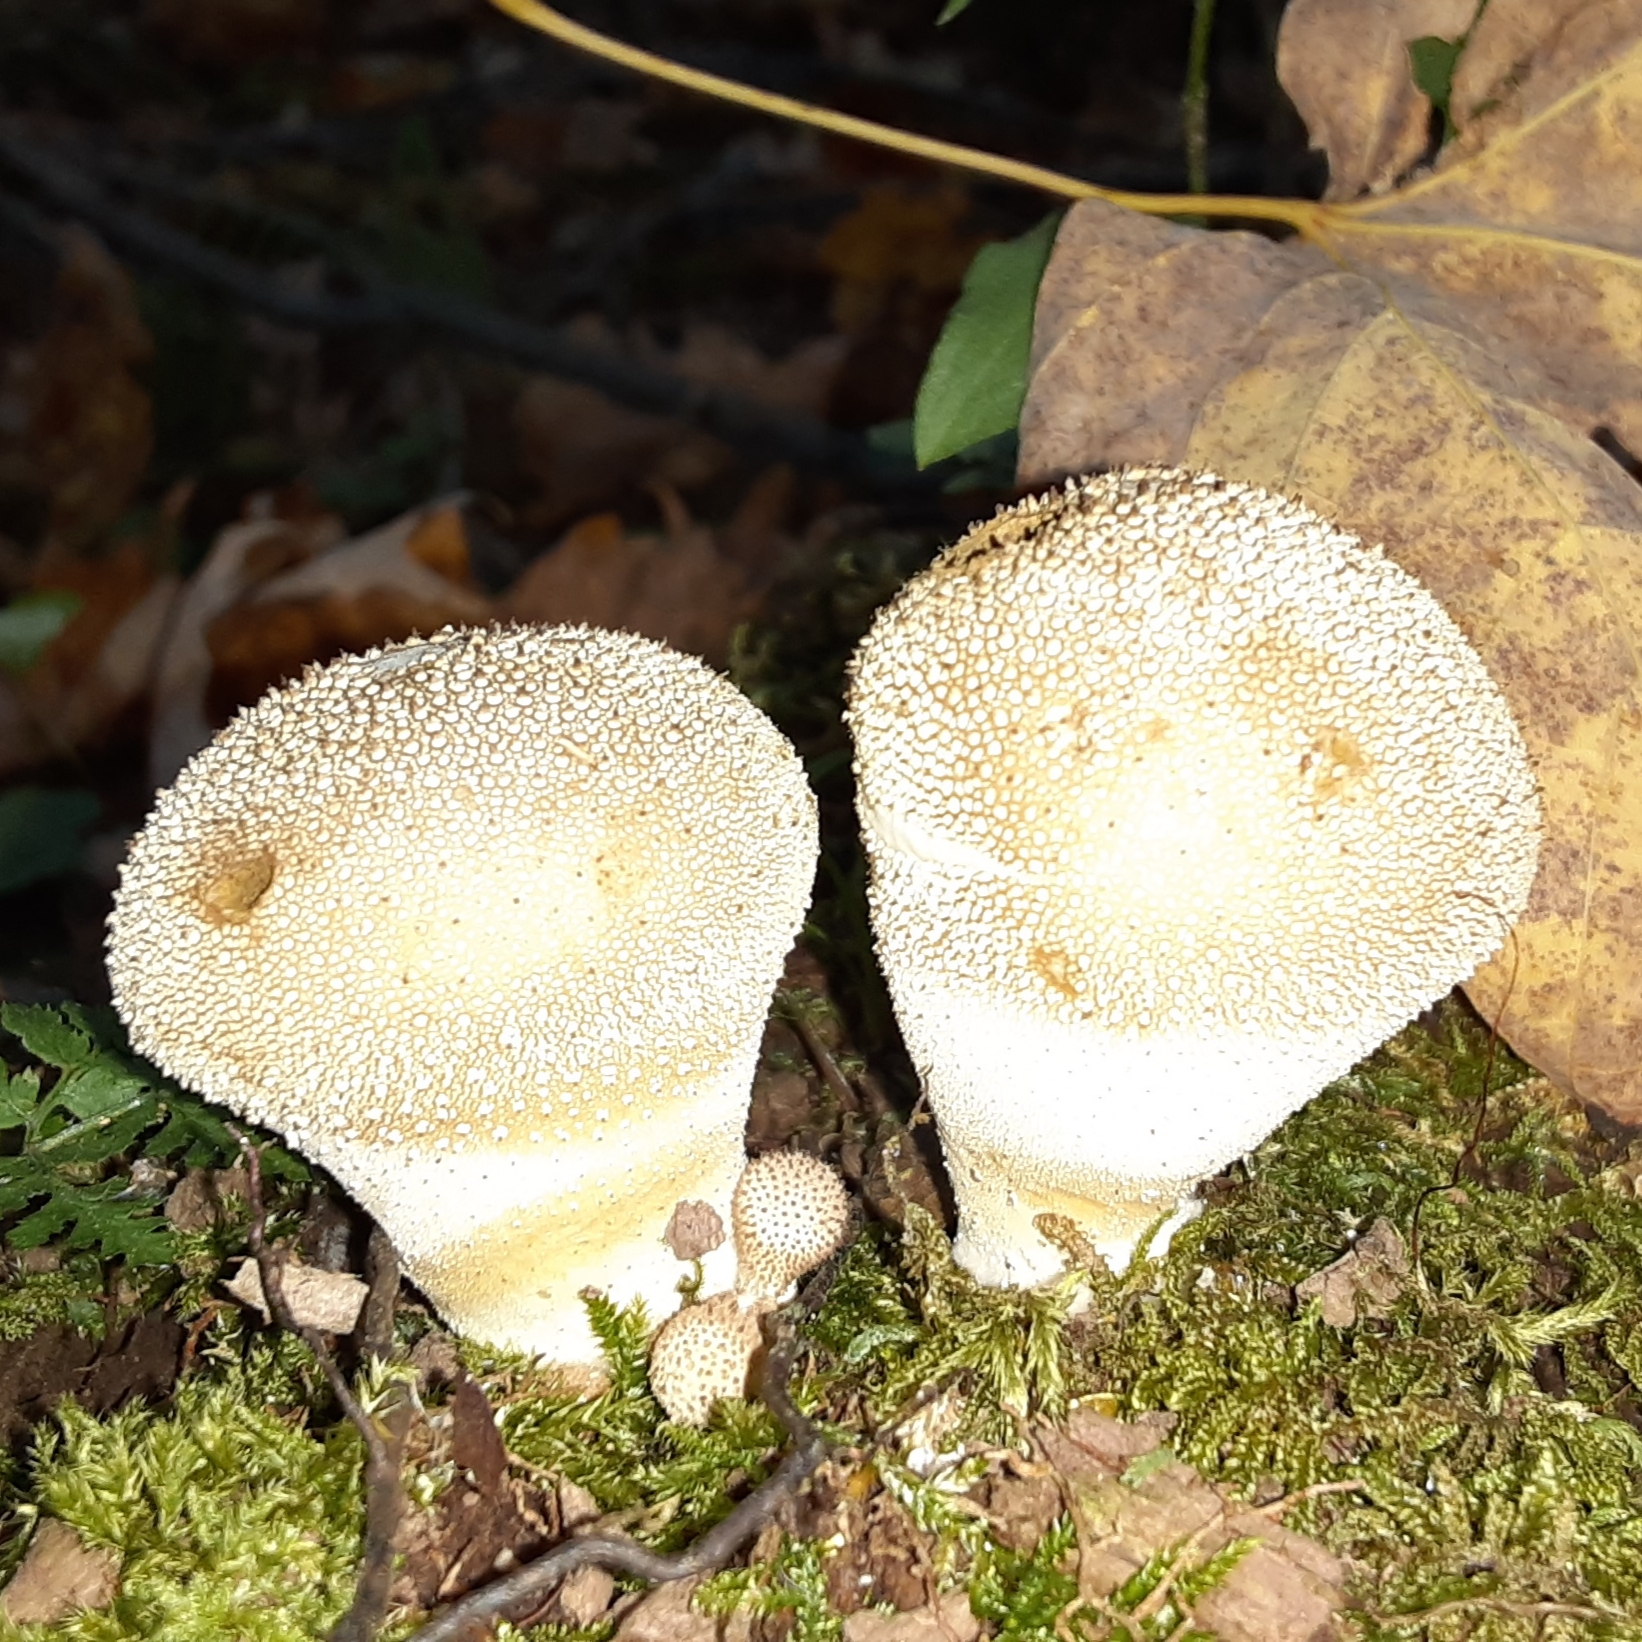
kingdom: Fungi
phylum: Basidiomycota
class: Agaricomycetes
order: Agaricales
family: Lycoperdaceae
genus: Lycoperdon
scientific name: Lycoperdon perlatum
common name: Common puffball
